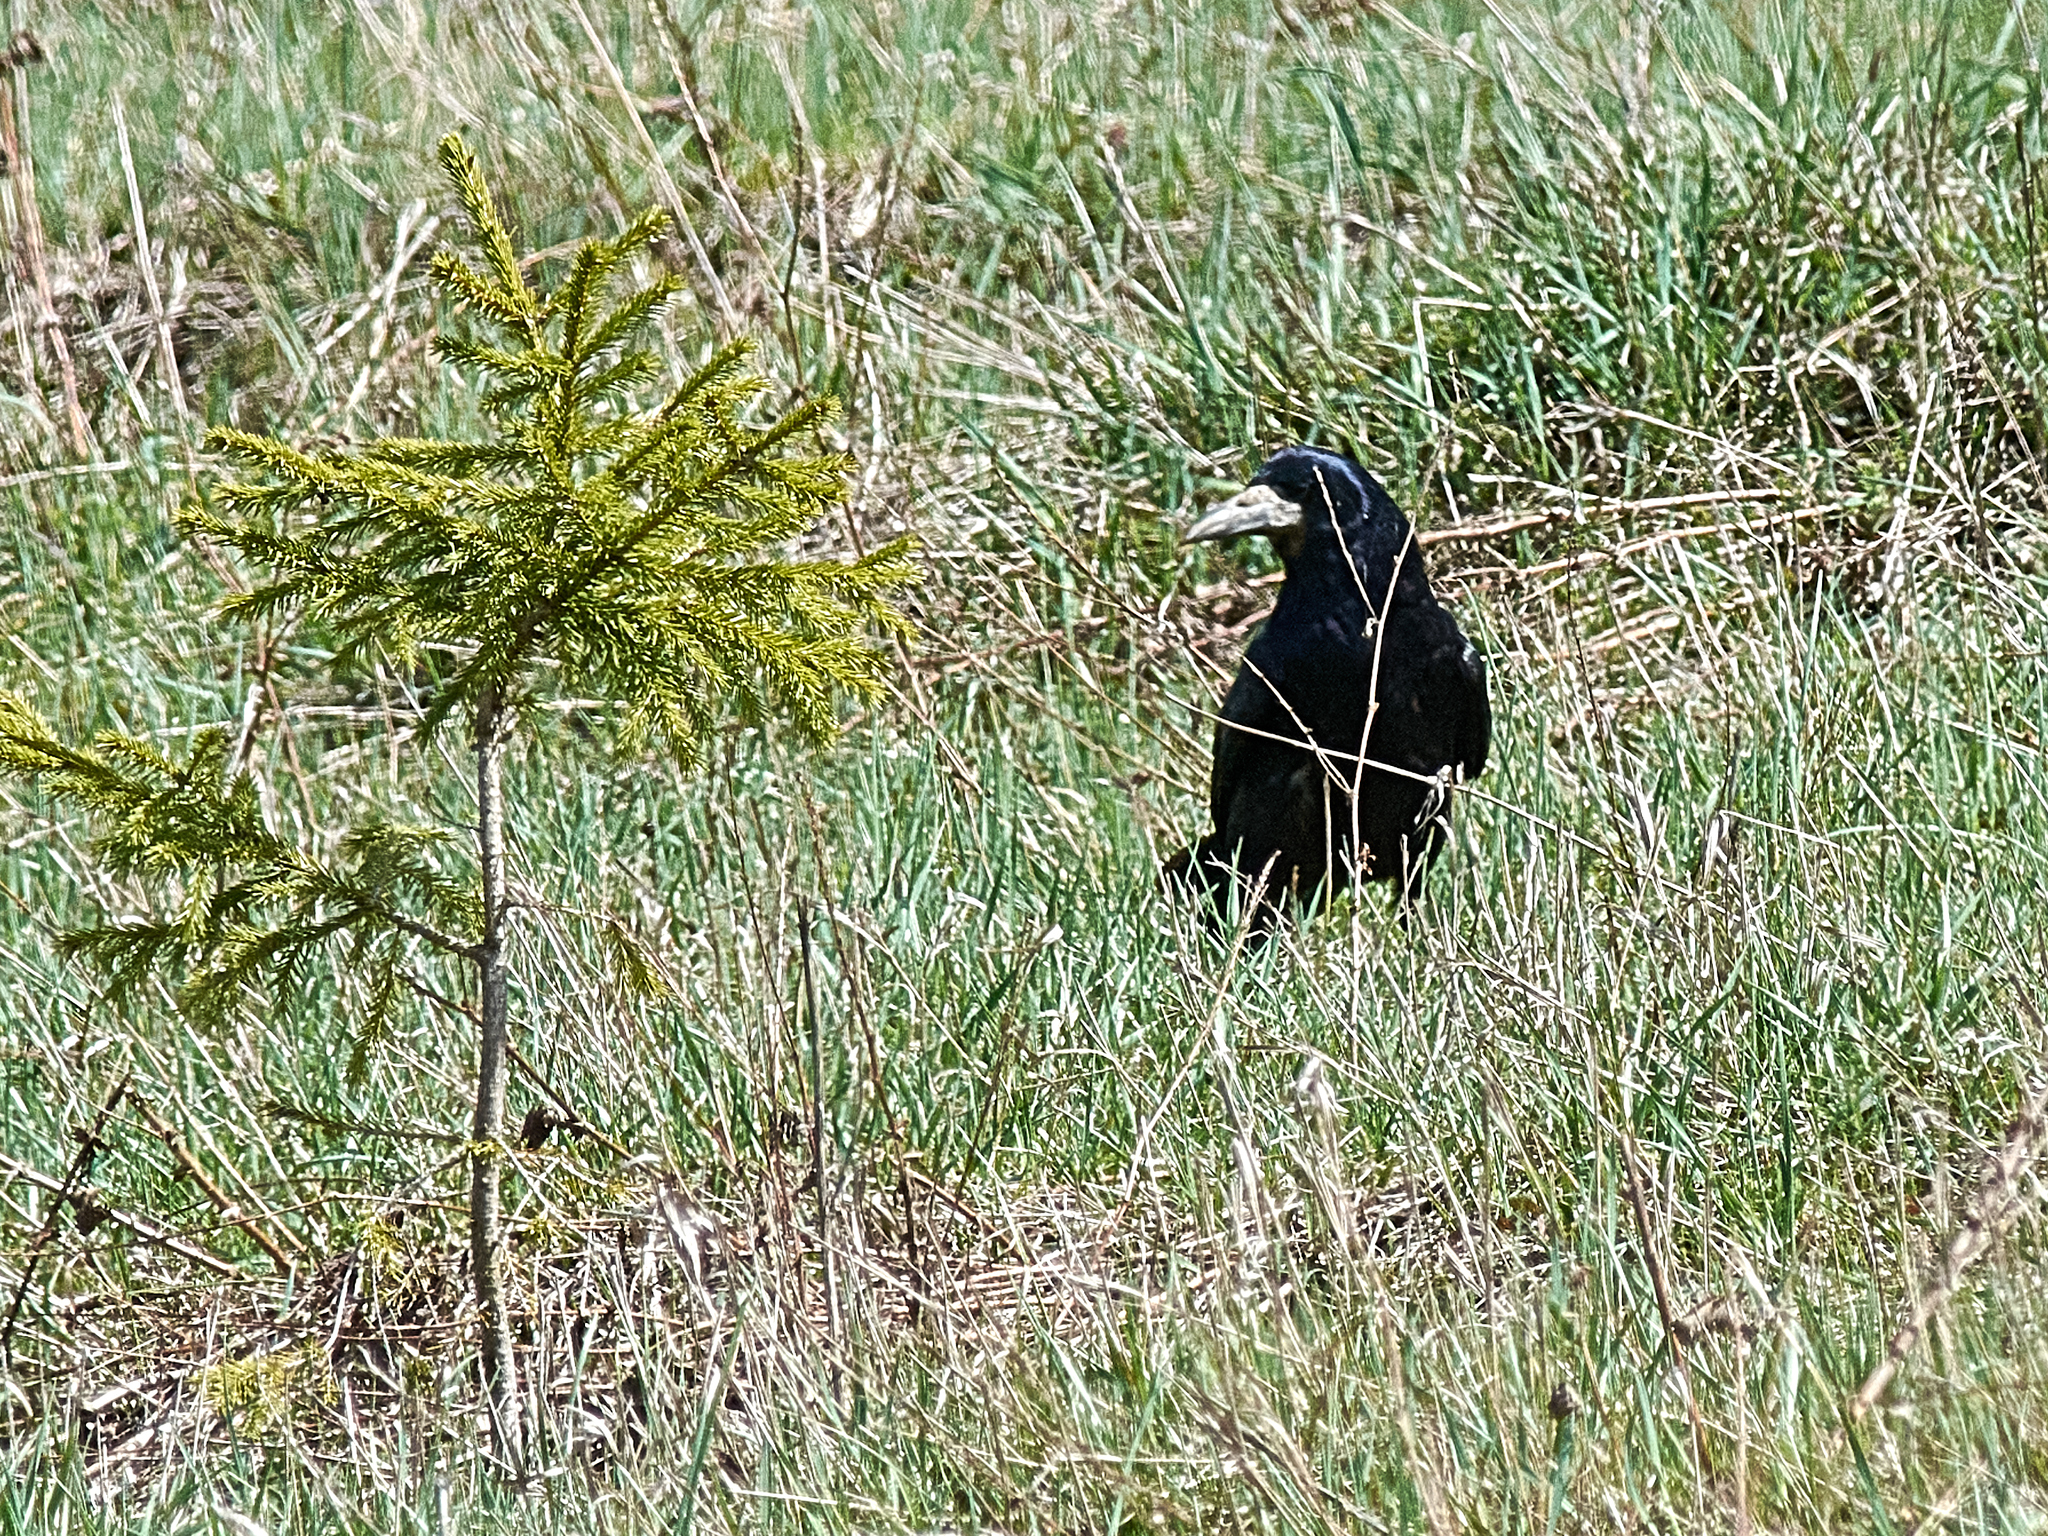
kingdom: Animalia
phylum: Chordata
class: Aves
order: Passeriformes
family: Corvidae
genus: Corvus
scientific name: Corvus frugilegus
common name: Rook
